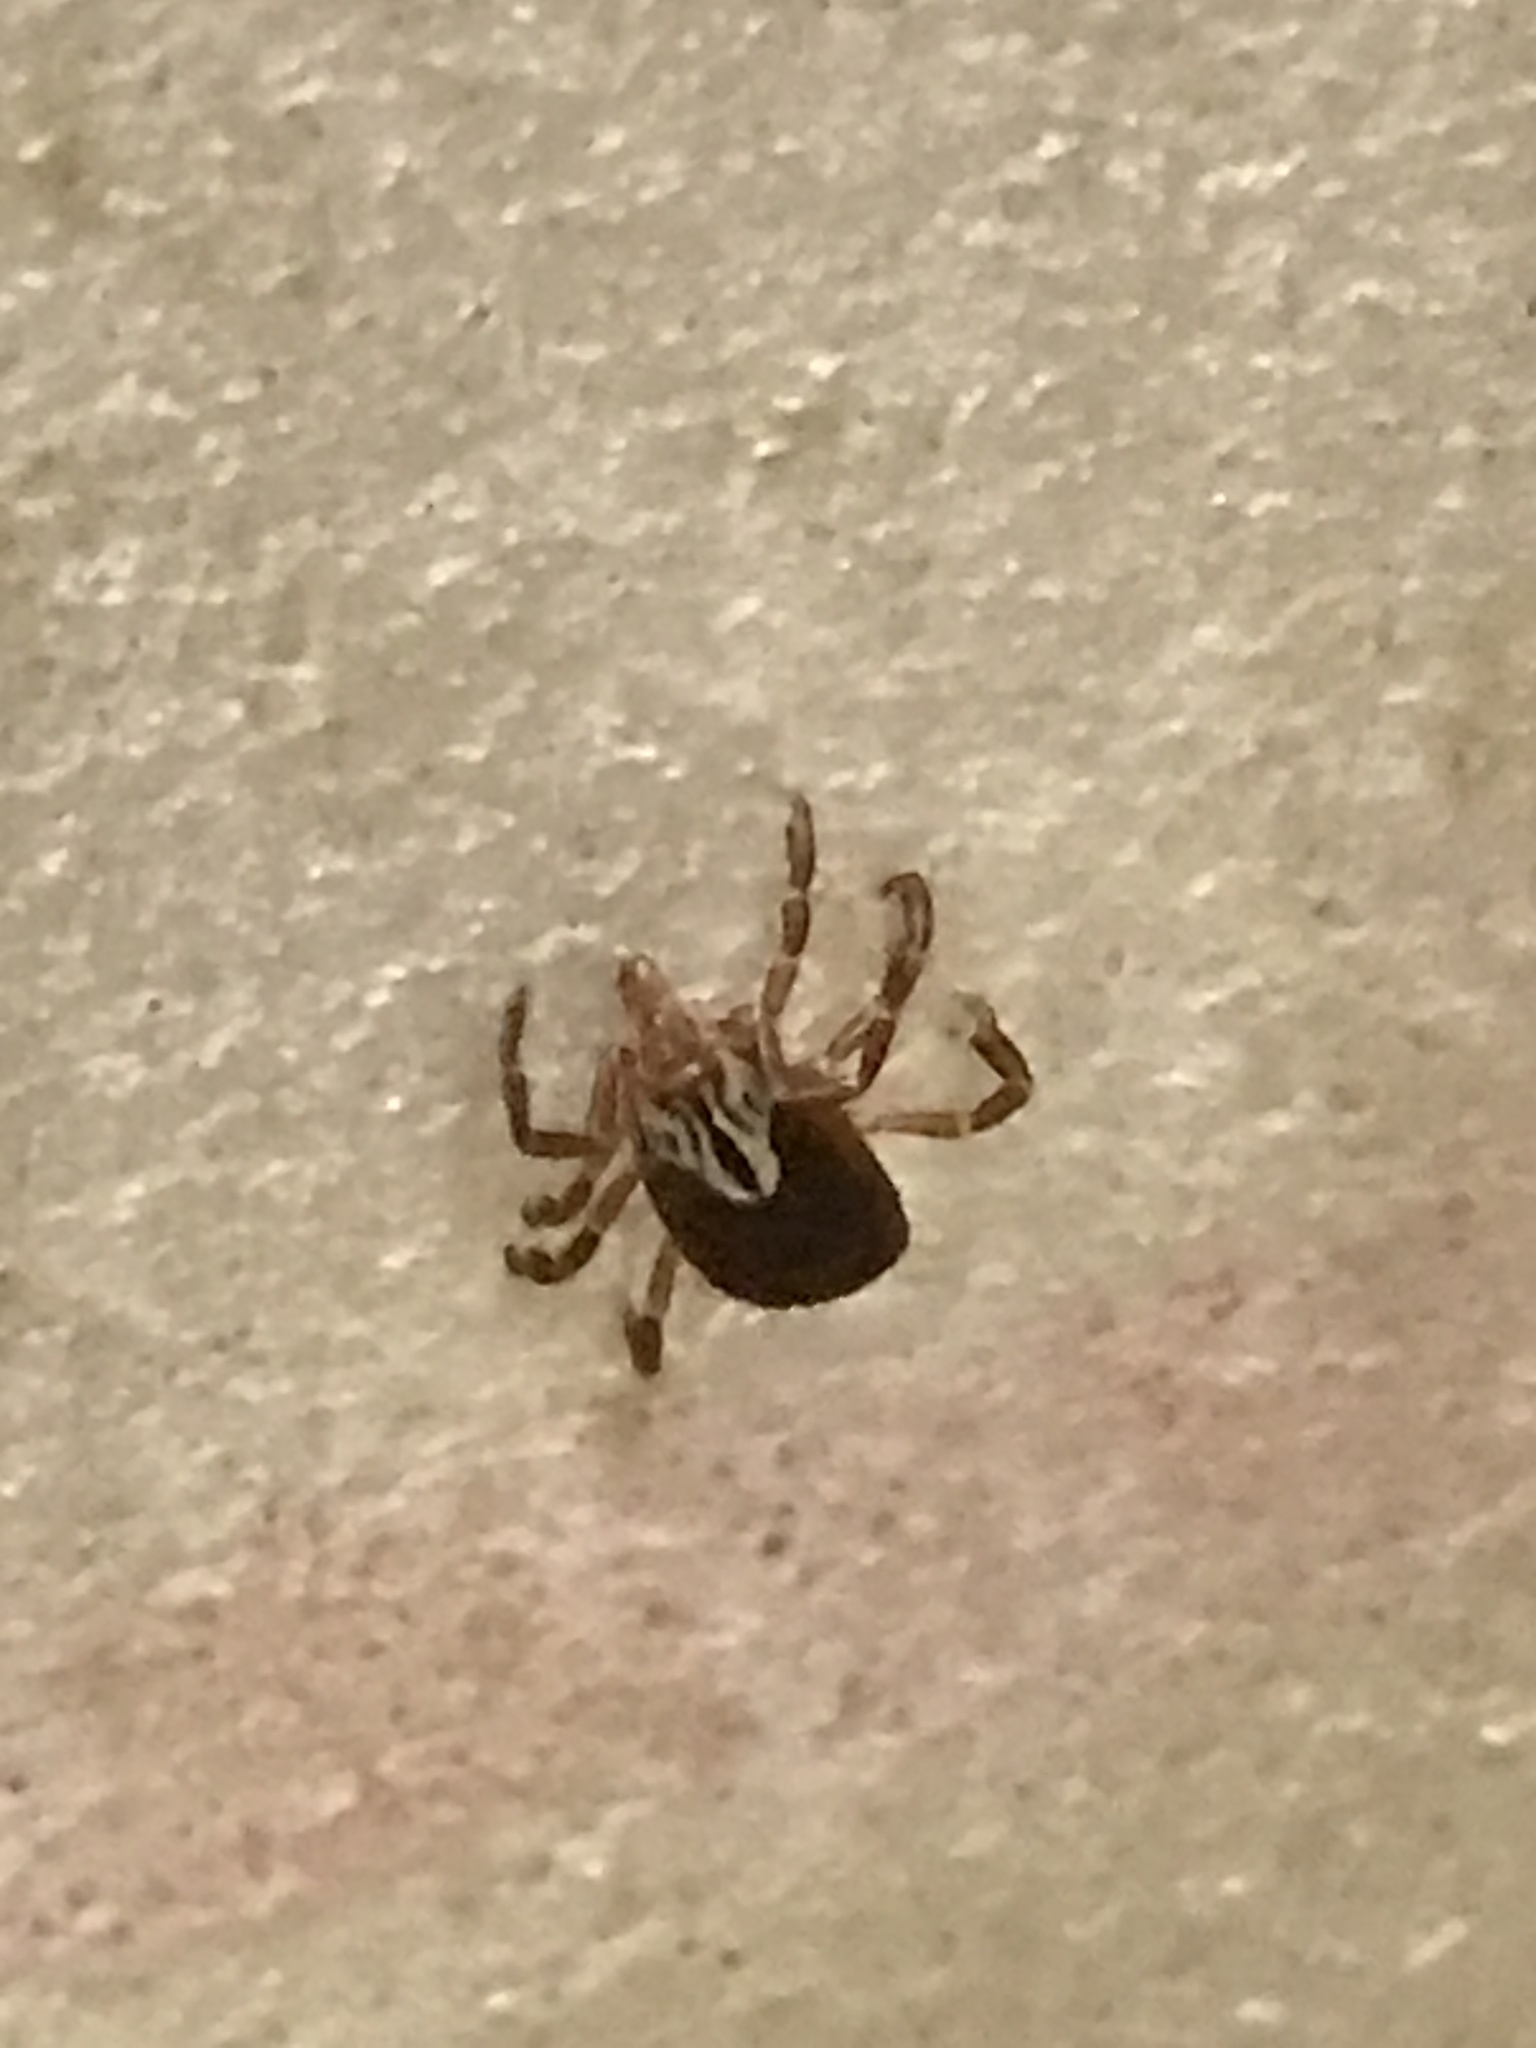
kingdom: Animalia
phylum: Arthropoda
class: Arachnida
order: Ixodida
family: Ixodidae
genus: Amblyomma
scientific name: Amblyomma maculatum
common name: Gulf coast tick
